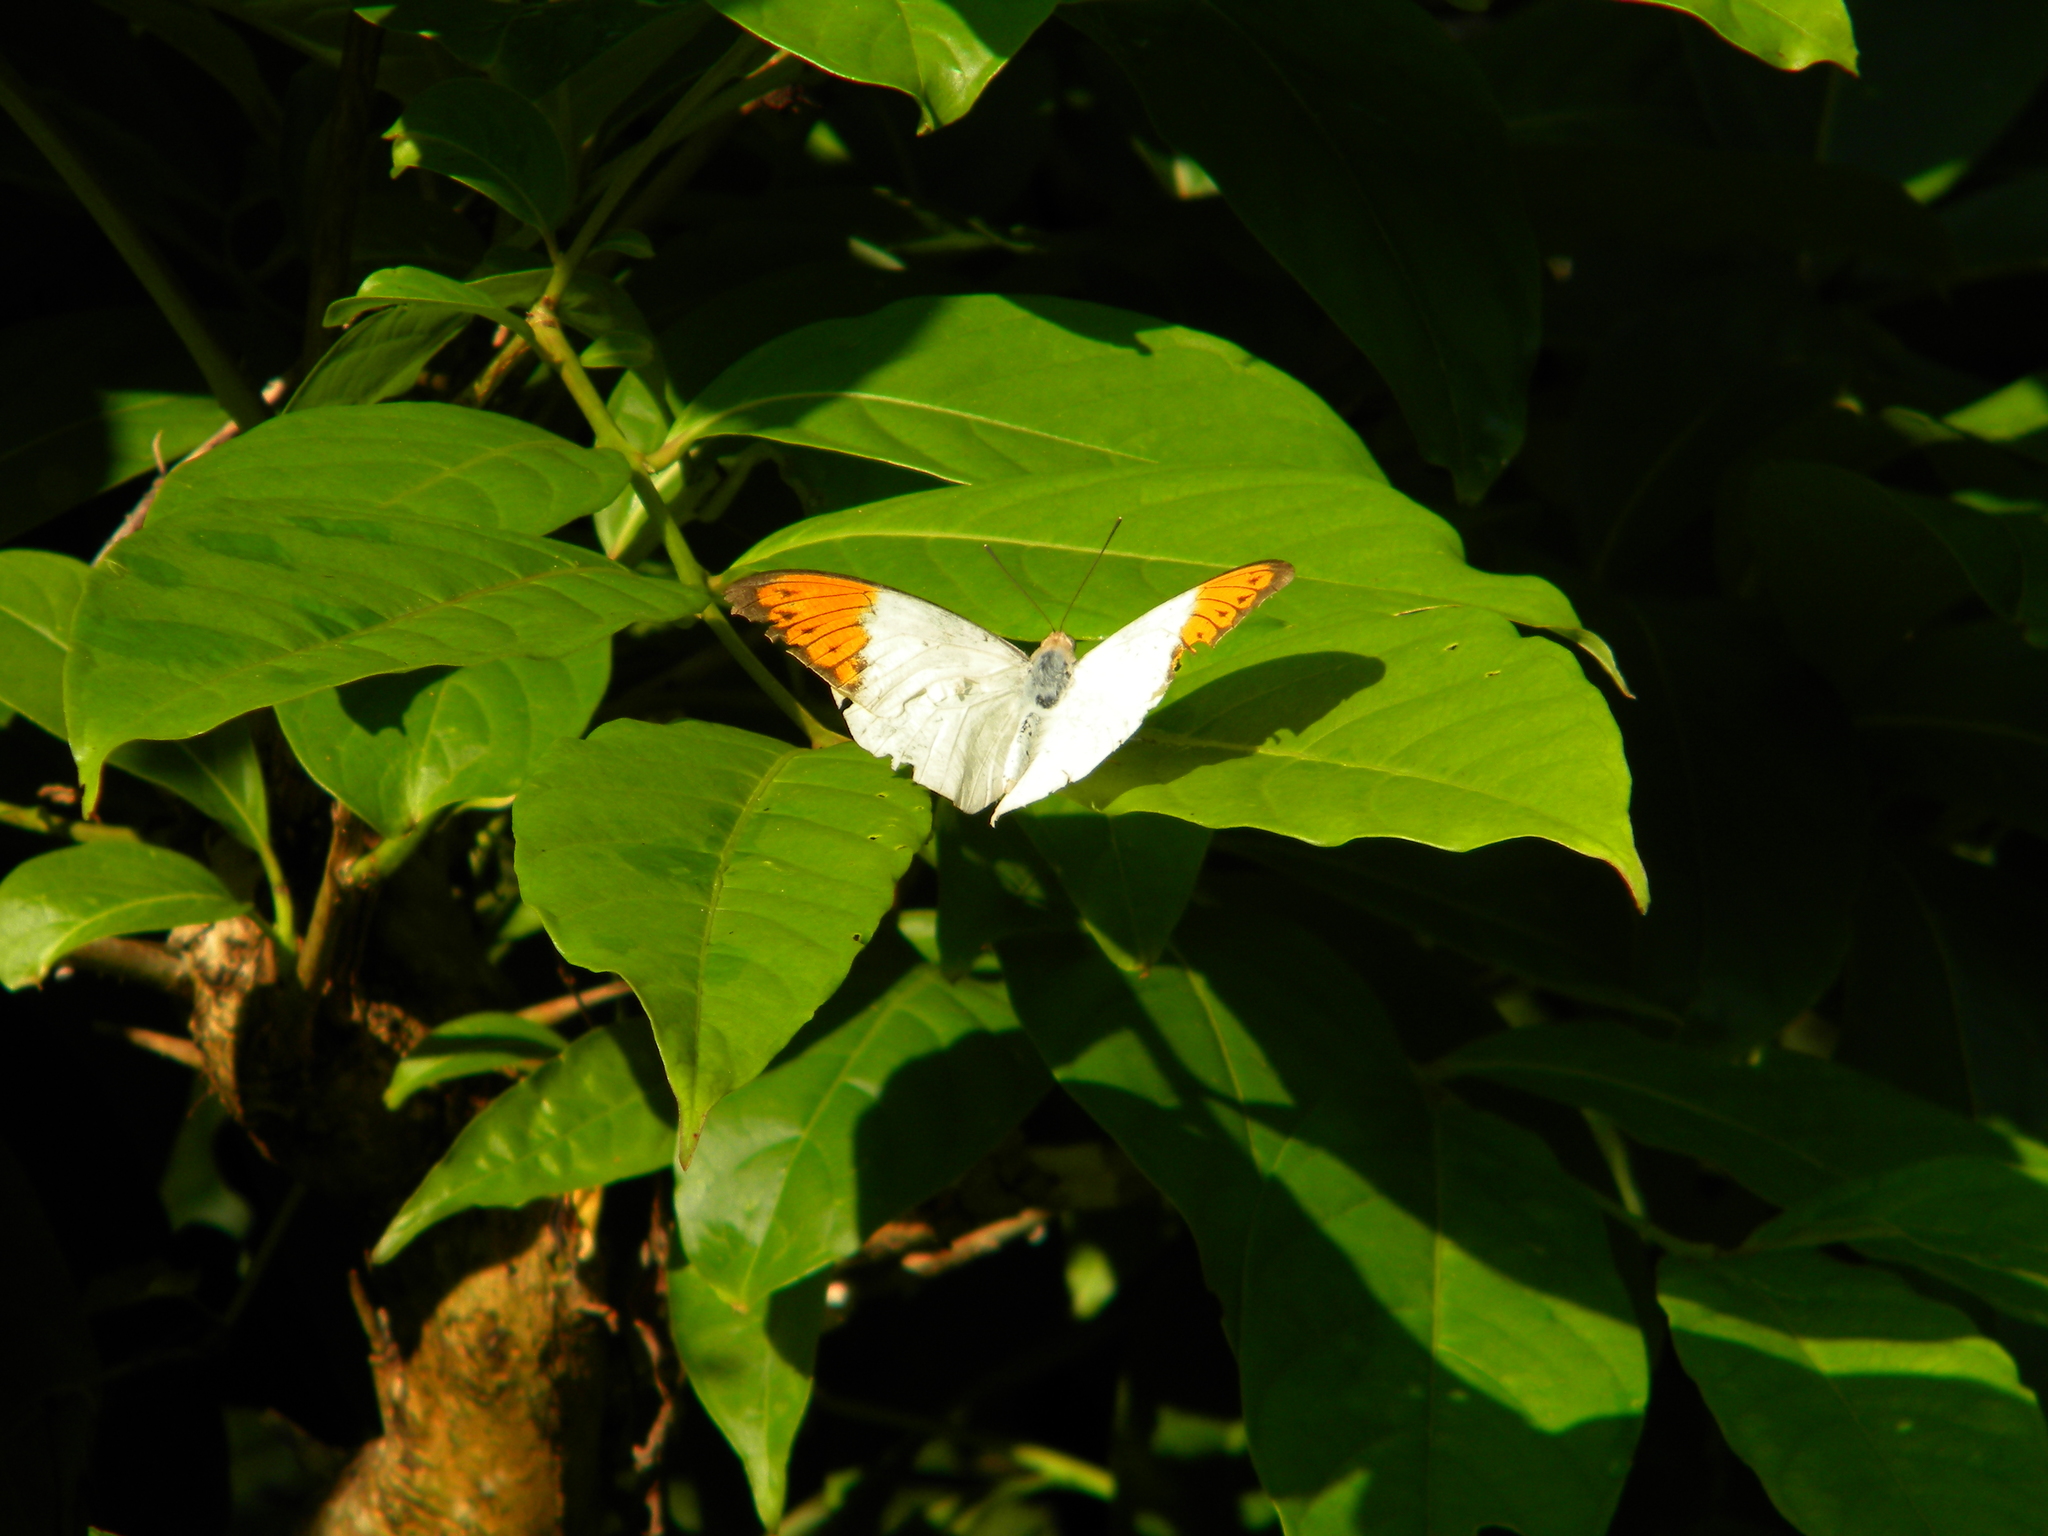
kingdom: Animalia
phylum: Arthropoda
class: Insecta
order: Lepidoptera
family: Pieridae
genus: Hebomoia
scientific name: Hebomoia glaucippe
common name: Great orange tip
